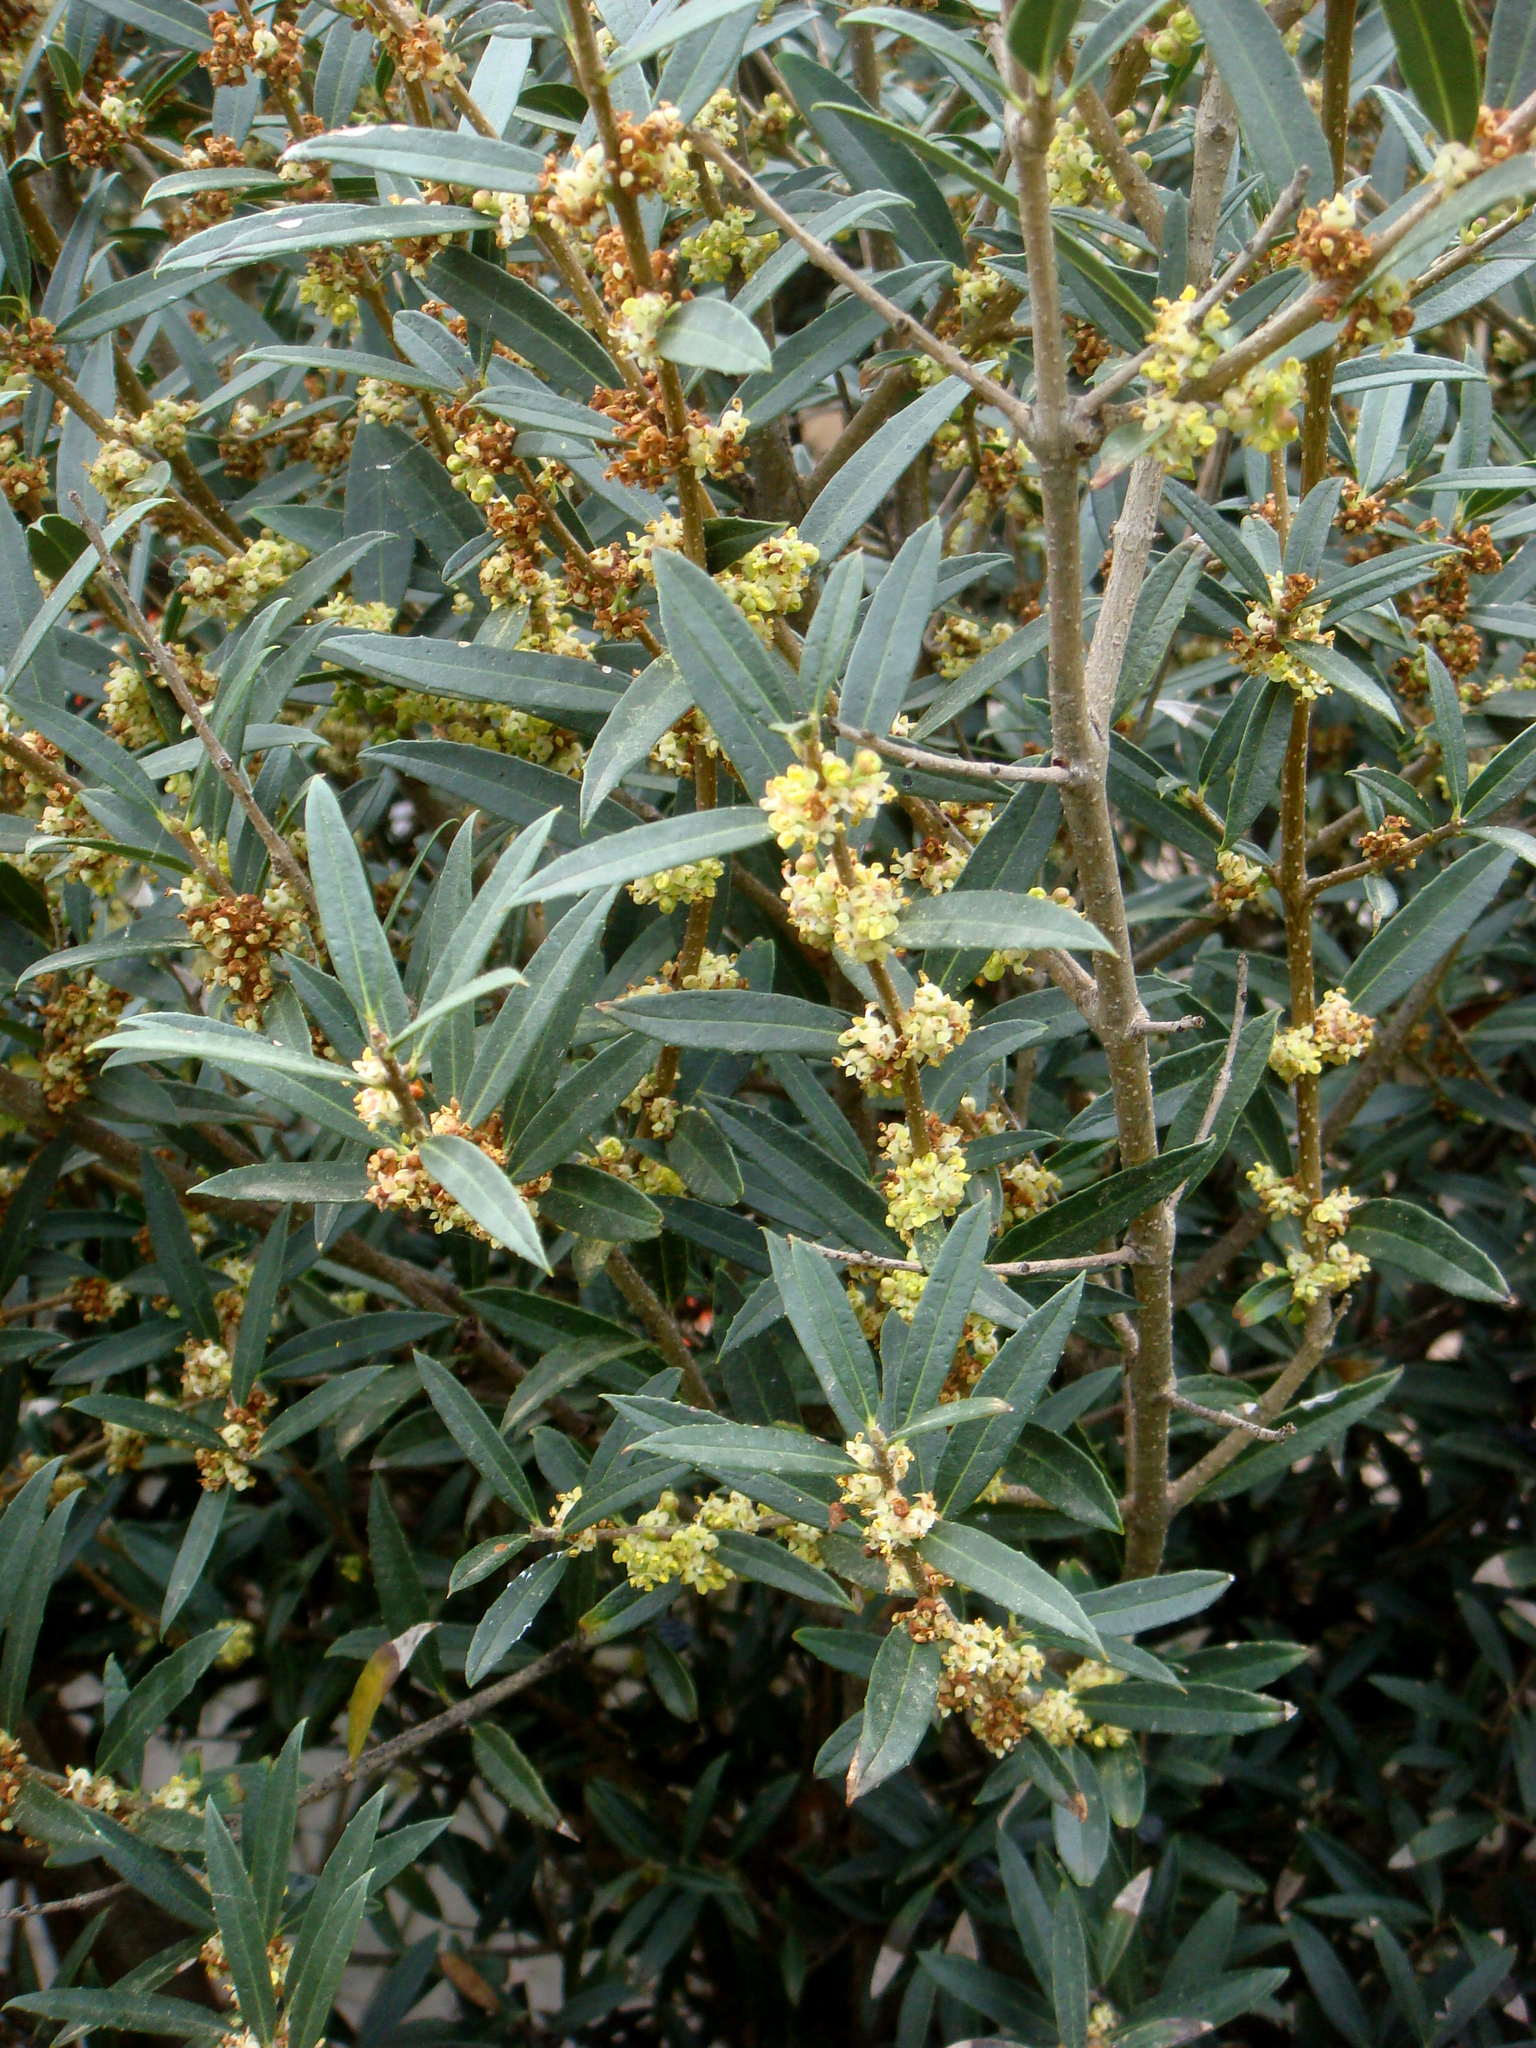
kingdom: Plantae
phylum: Tracheophyta
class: Magnoliopsida
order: Lamiales
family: Oleaceae
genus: Phillyrea
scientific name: Phillyrea angustifolia
